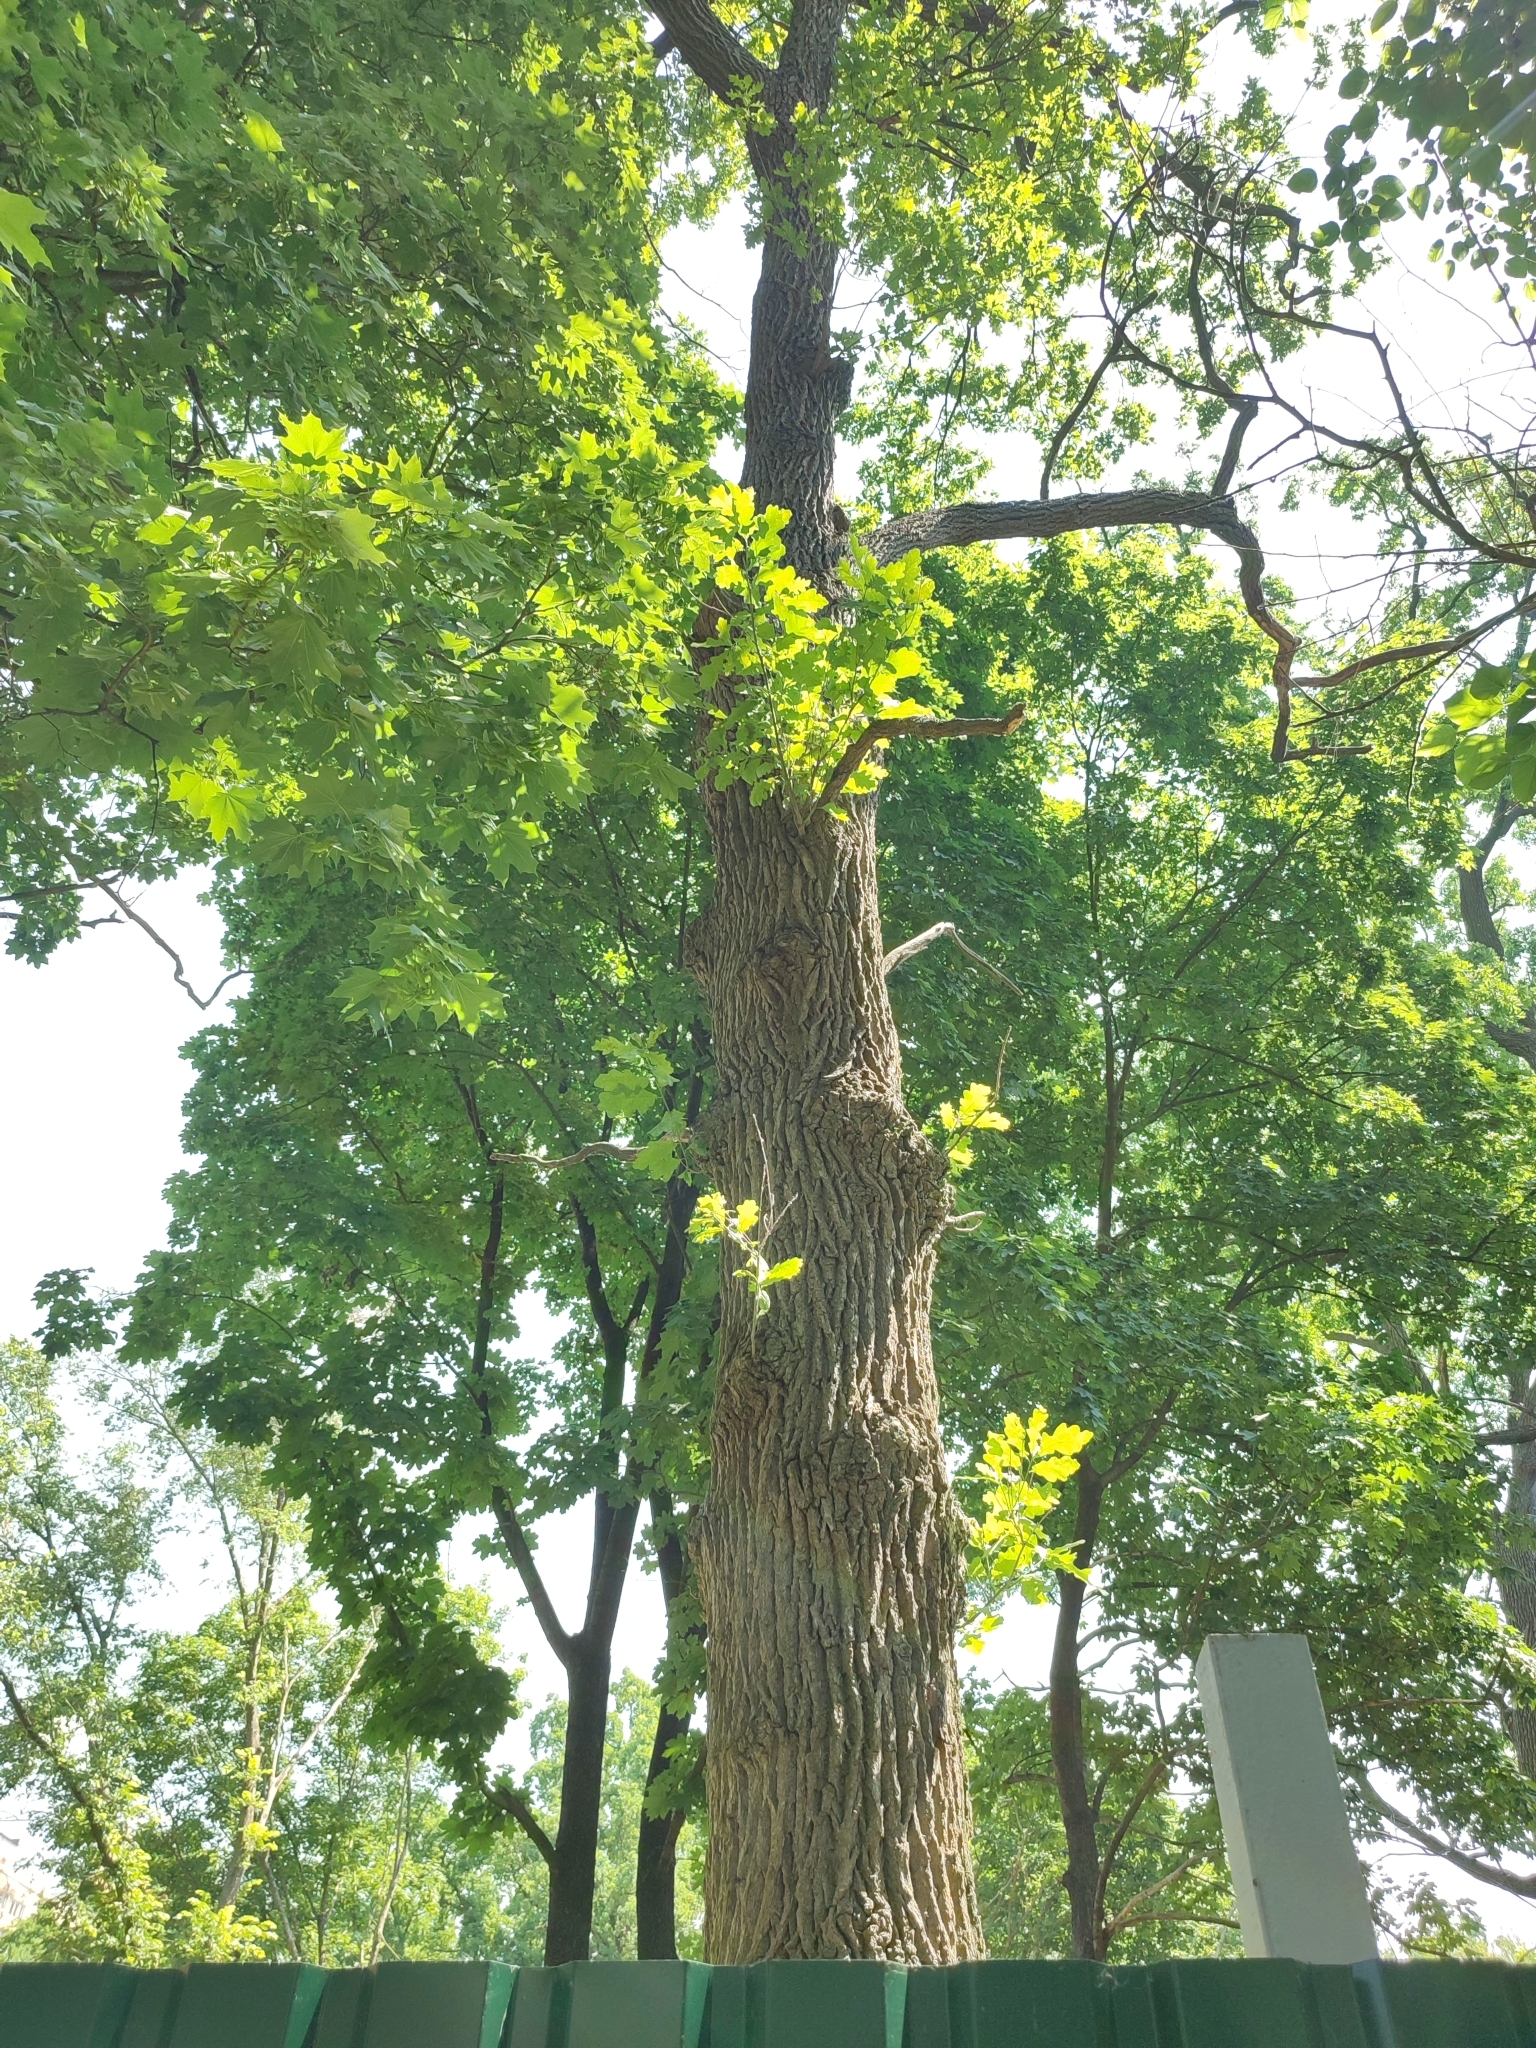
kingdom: Plantae
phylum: Tracheophyta
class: Magnoliopsida
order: Fagales
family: Fagaceae
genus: Quercus
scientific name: Quercus robur
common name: Pedunculate oak
